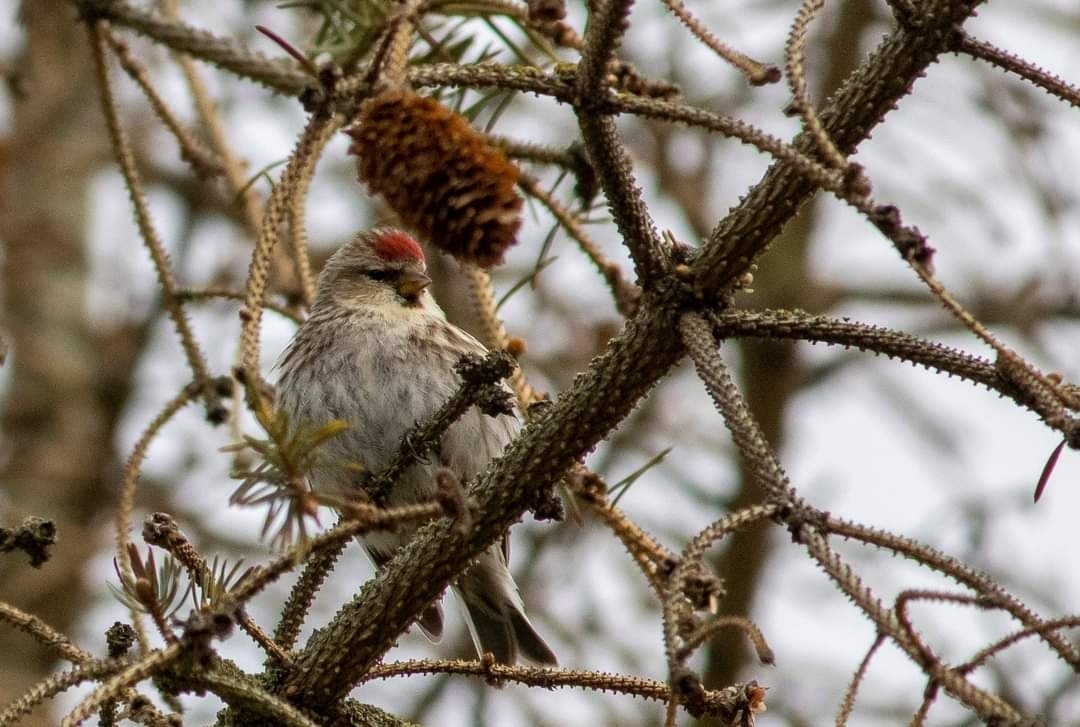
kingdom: Animalia
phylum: Chordata
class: Aves
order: Passeriformes
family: Fringillidae
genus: Acanthis
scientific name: Acanthis flammea
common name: Common redpoll
